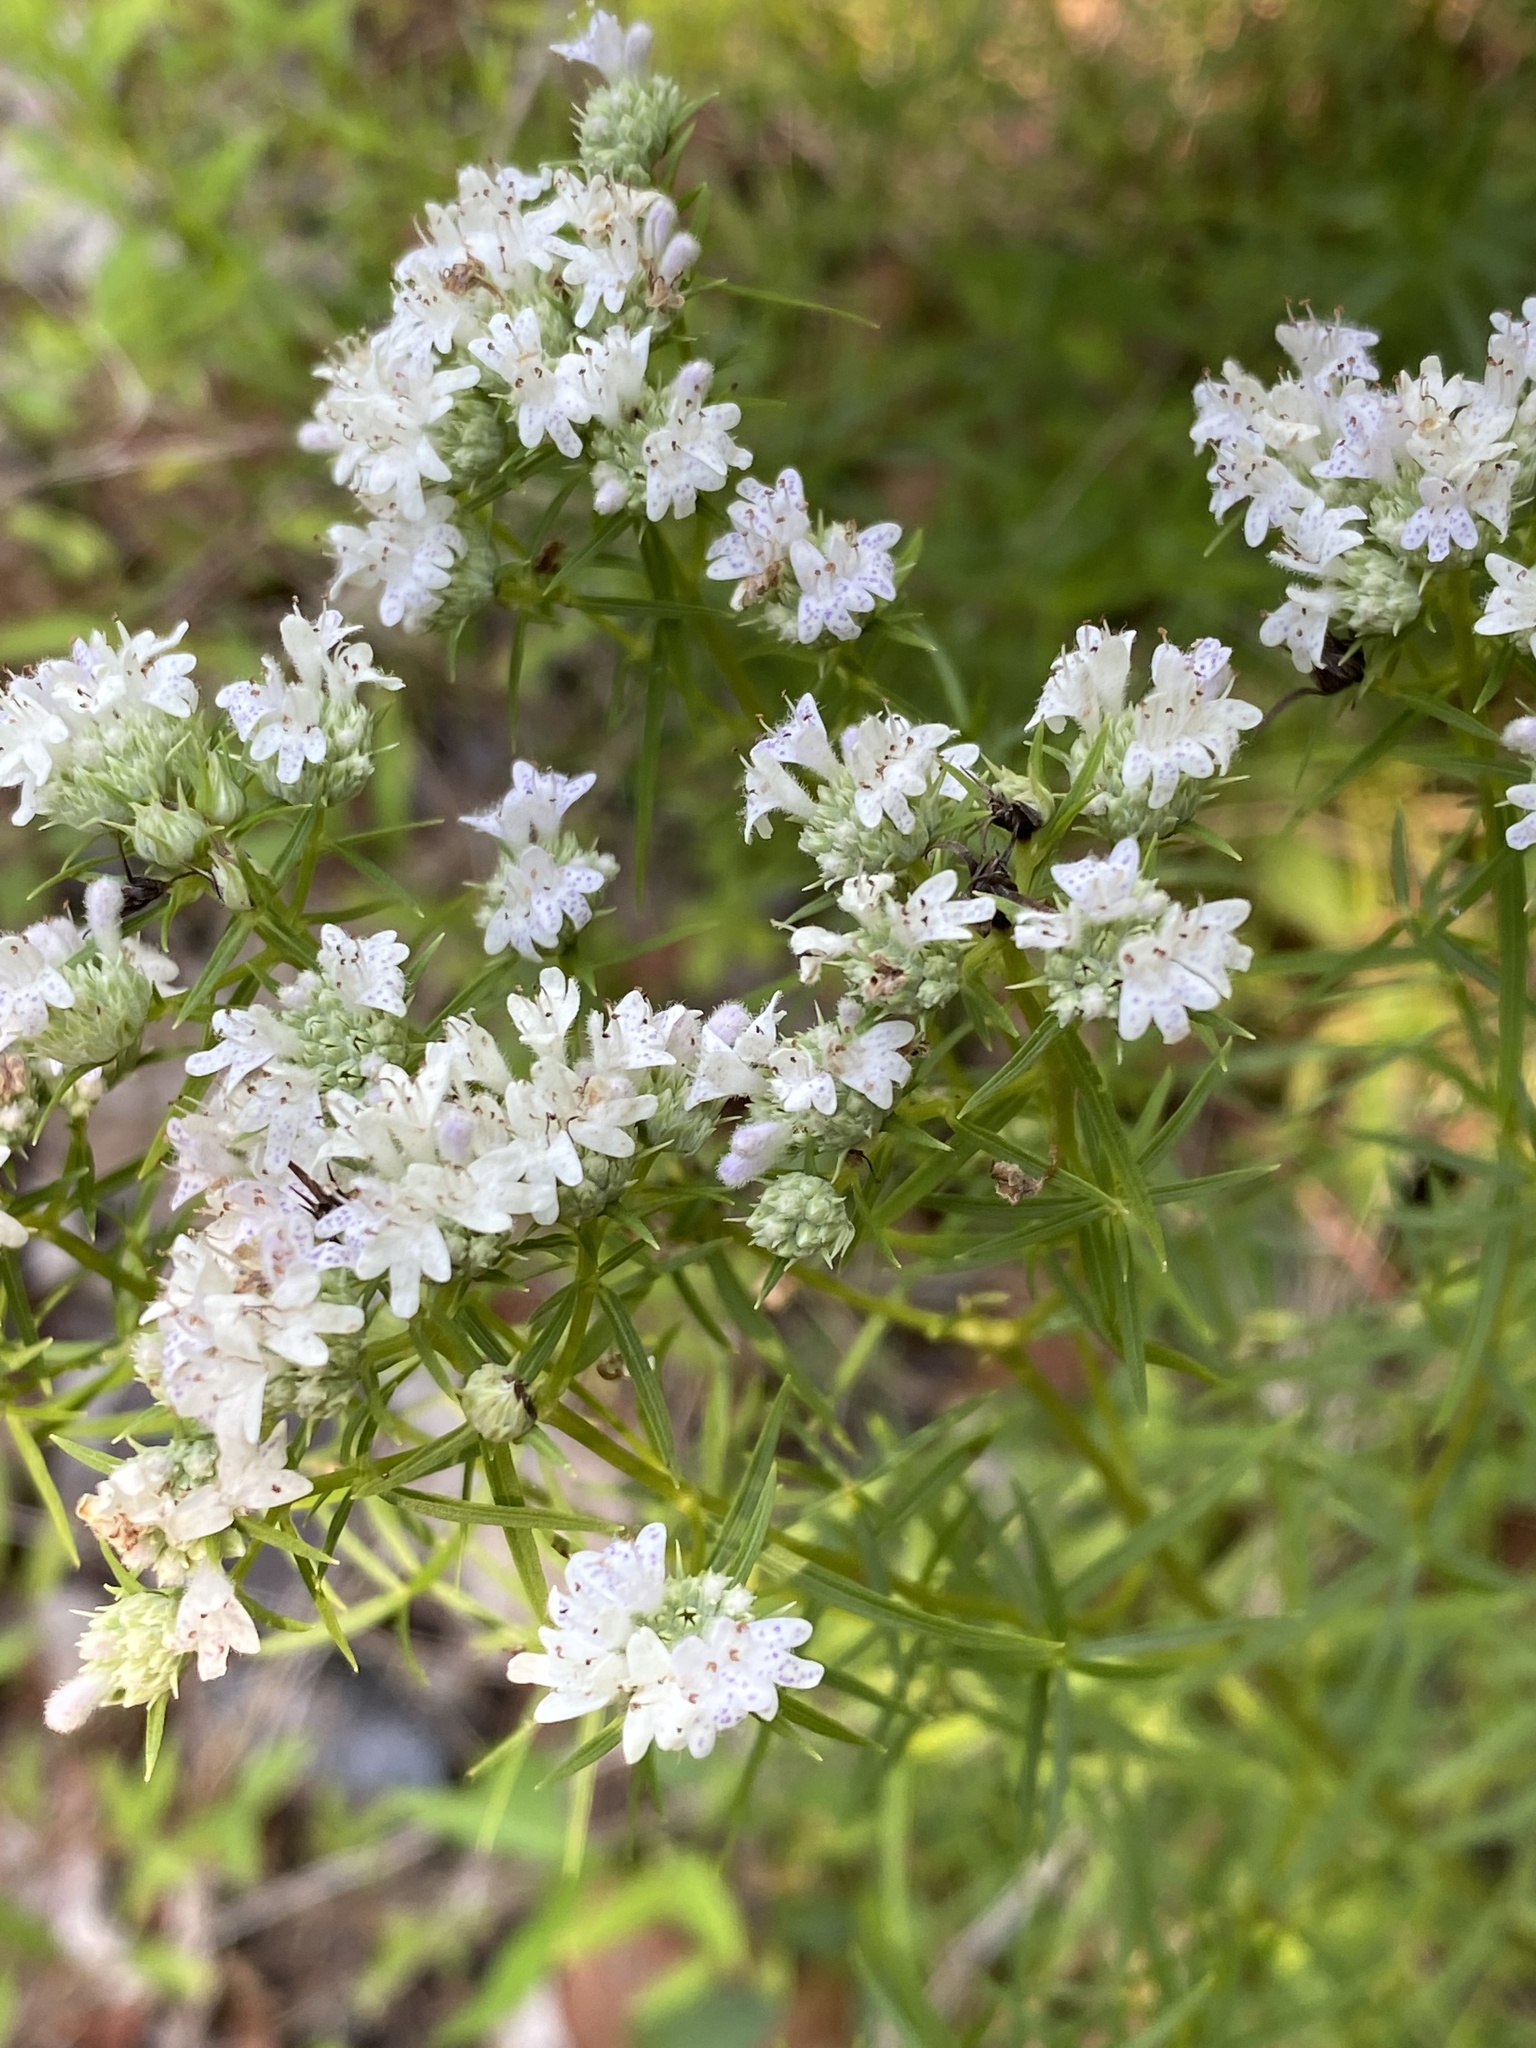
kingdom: Plantae
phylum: Tracheophyta
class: Magnoliopsida
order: Lamiales
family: Lamiaceae
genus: Pycnanthemum
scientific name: Pycnanthemum tenuifolium
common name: Narrow-leaf mountain-mint
